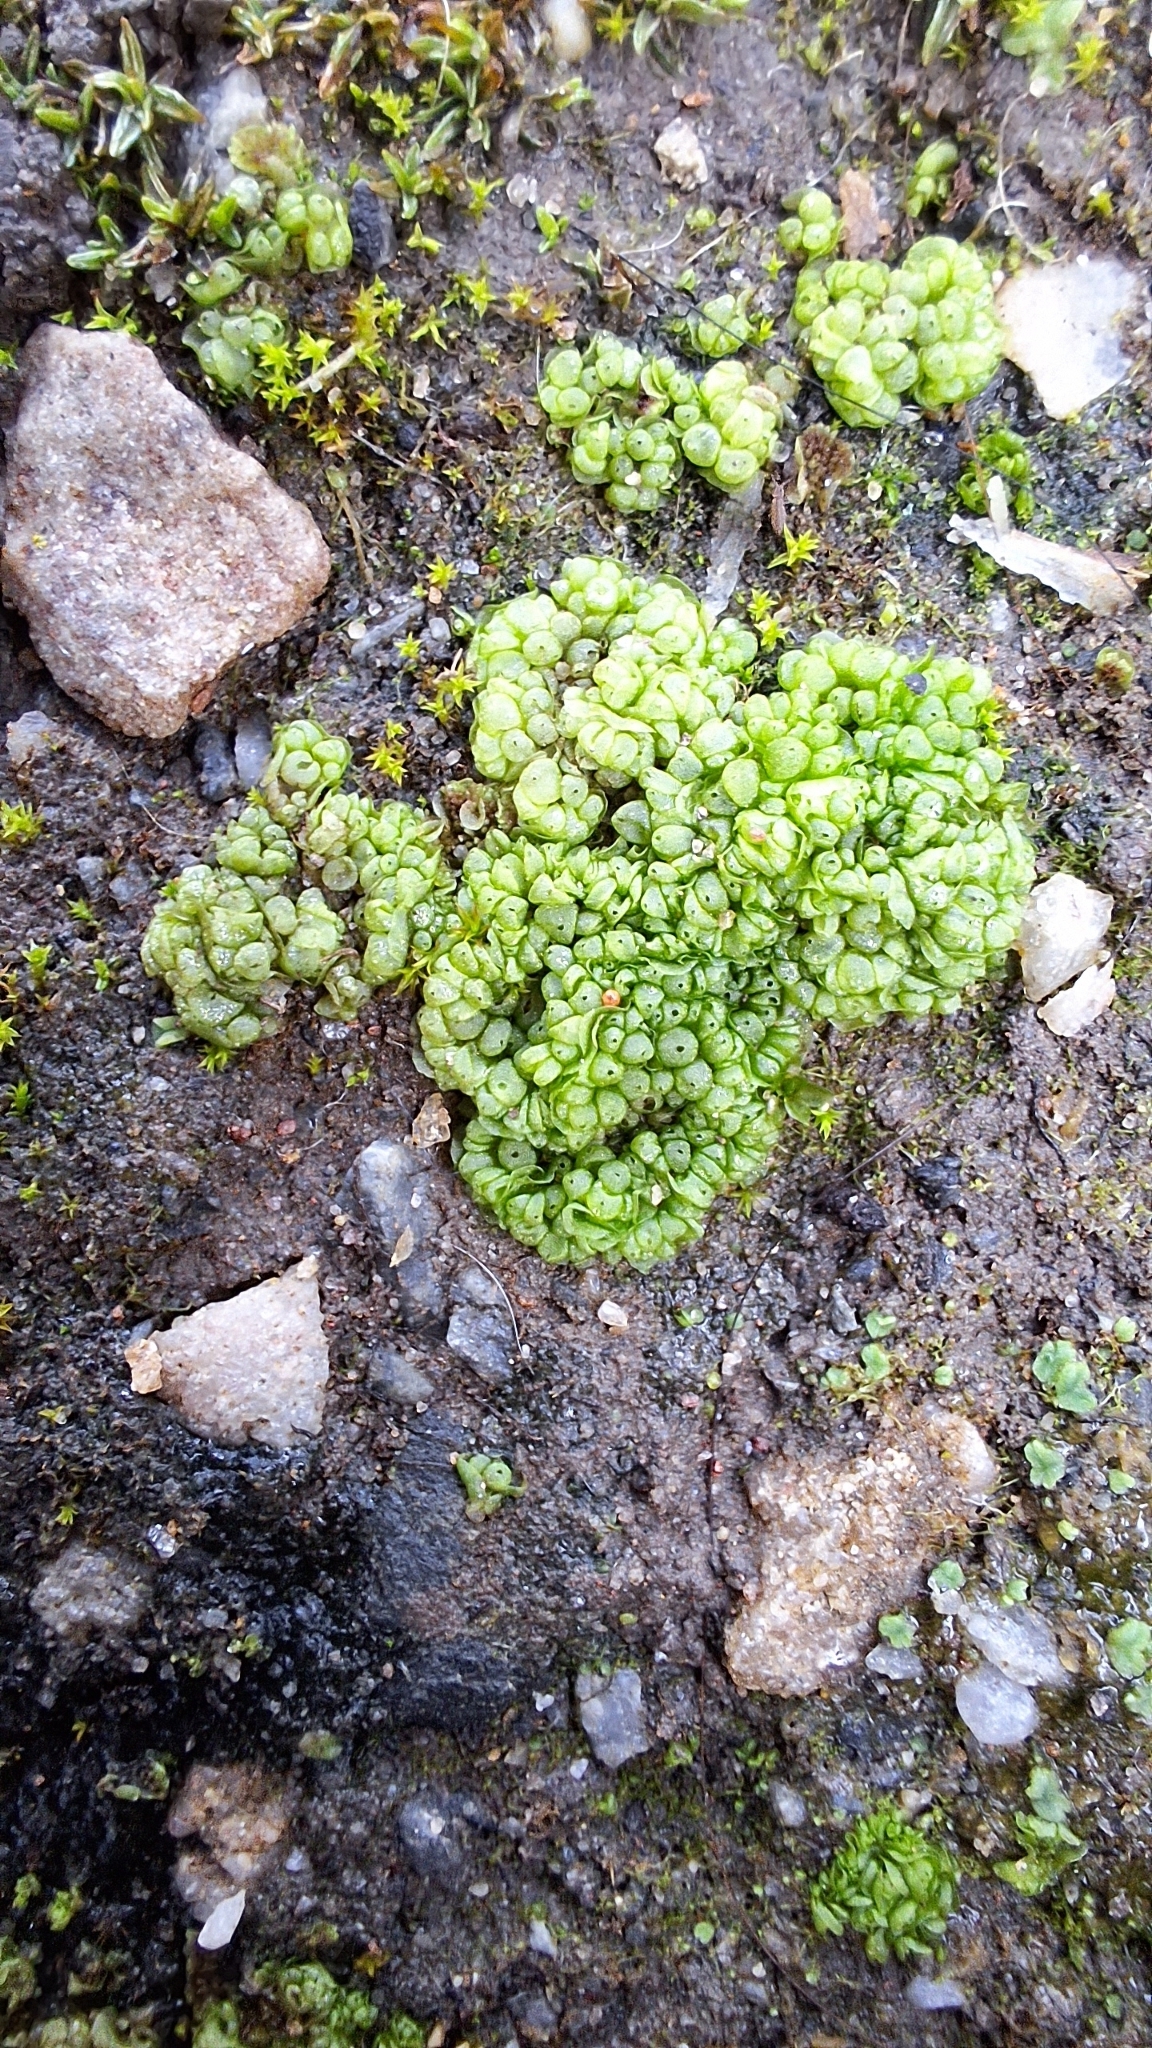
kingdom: Plantae
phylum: Marchantiophyta
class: Marchantiopsida
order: Sphaerocarpales
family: Sphaerocarpaceae
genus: Sphaerocarpos
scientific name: Sphaerocarpos texanus
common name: Texas balloonwort
